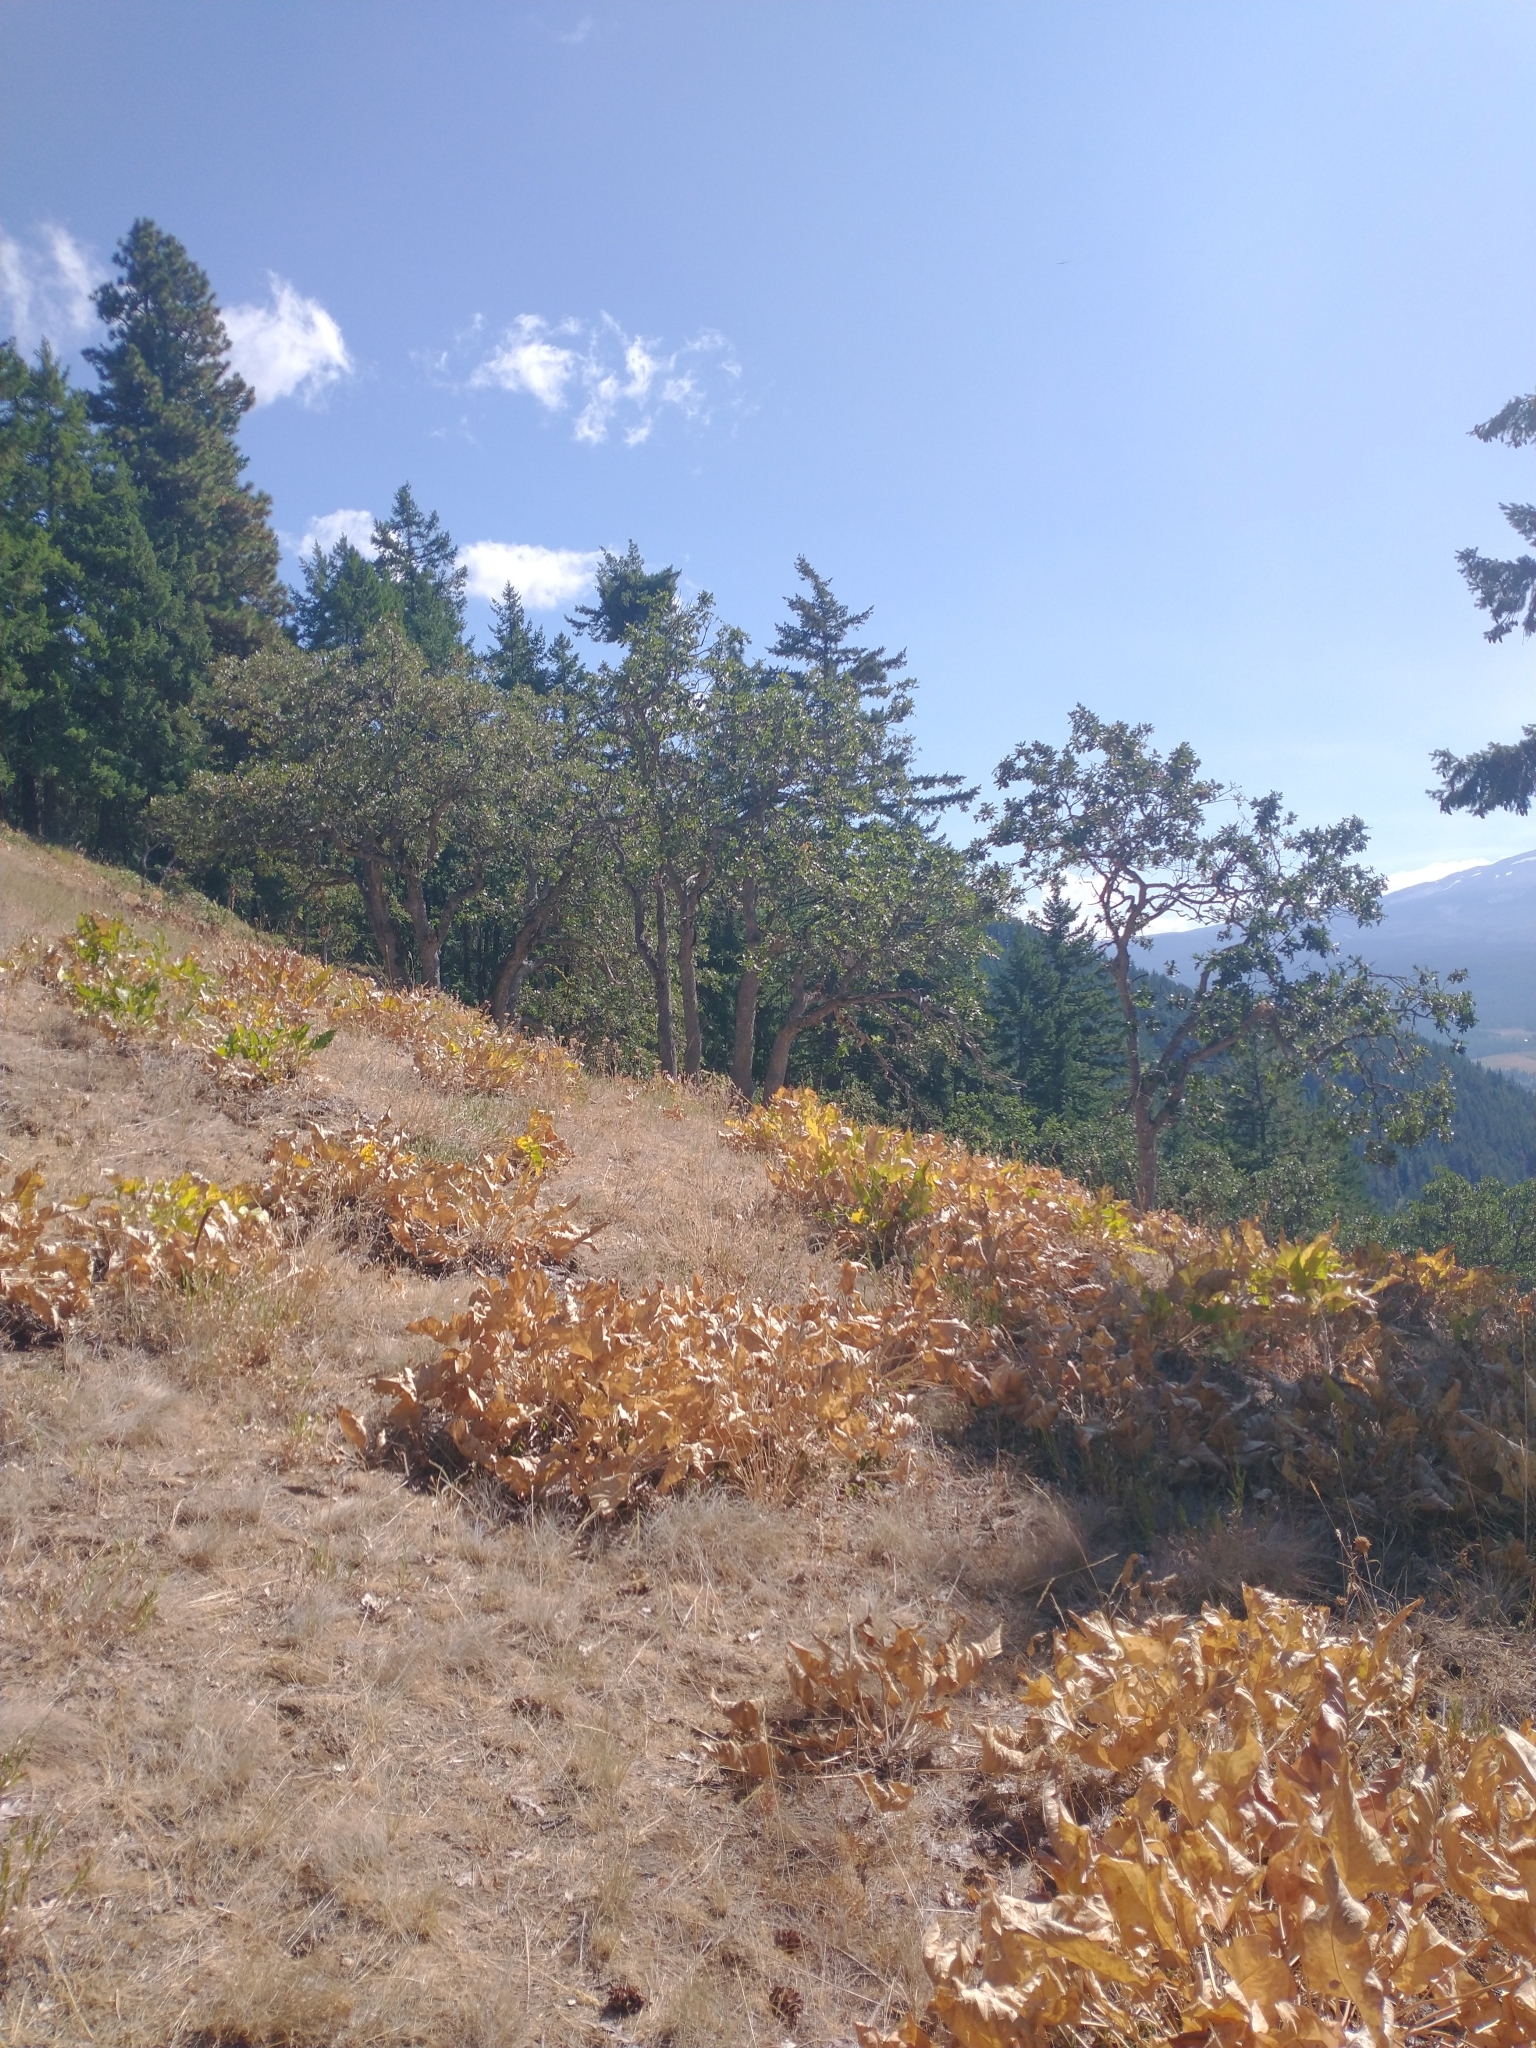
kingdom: Plantae
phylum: Tracheophyta
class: Magnoliopsida
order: Fagales
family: Fagaceae
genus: Quercus
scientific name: Quercus garryana
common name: Garry oak
